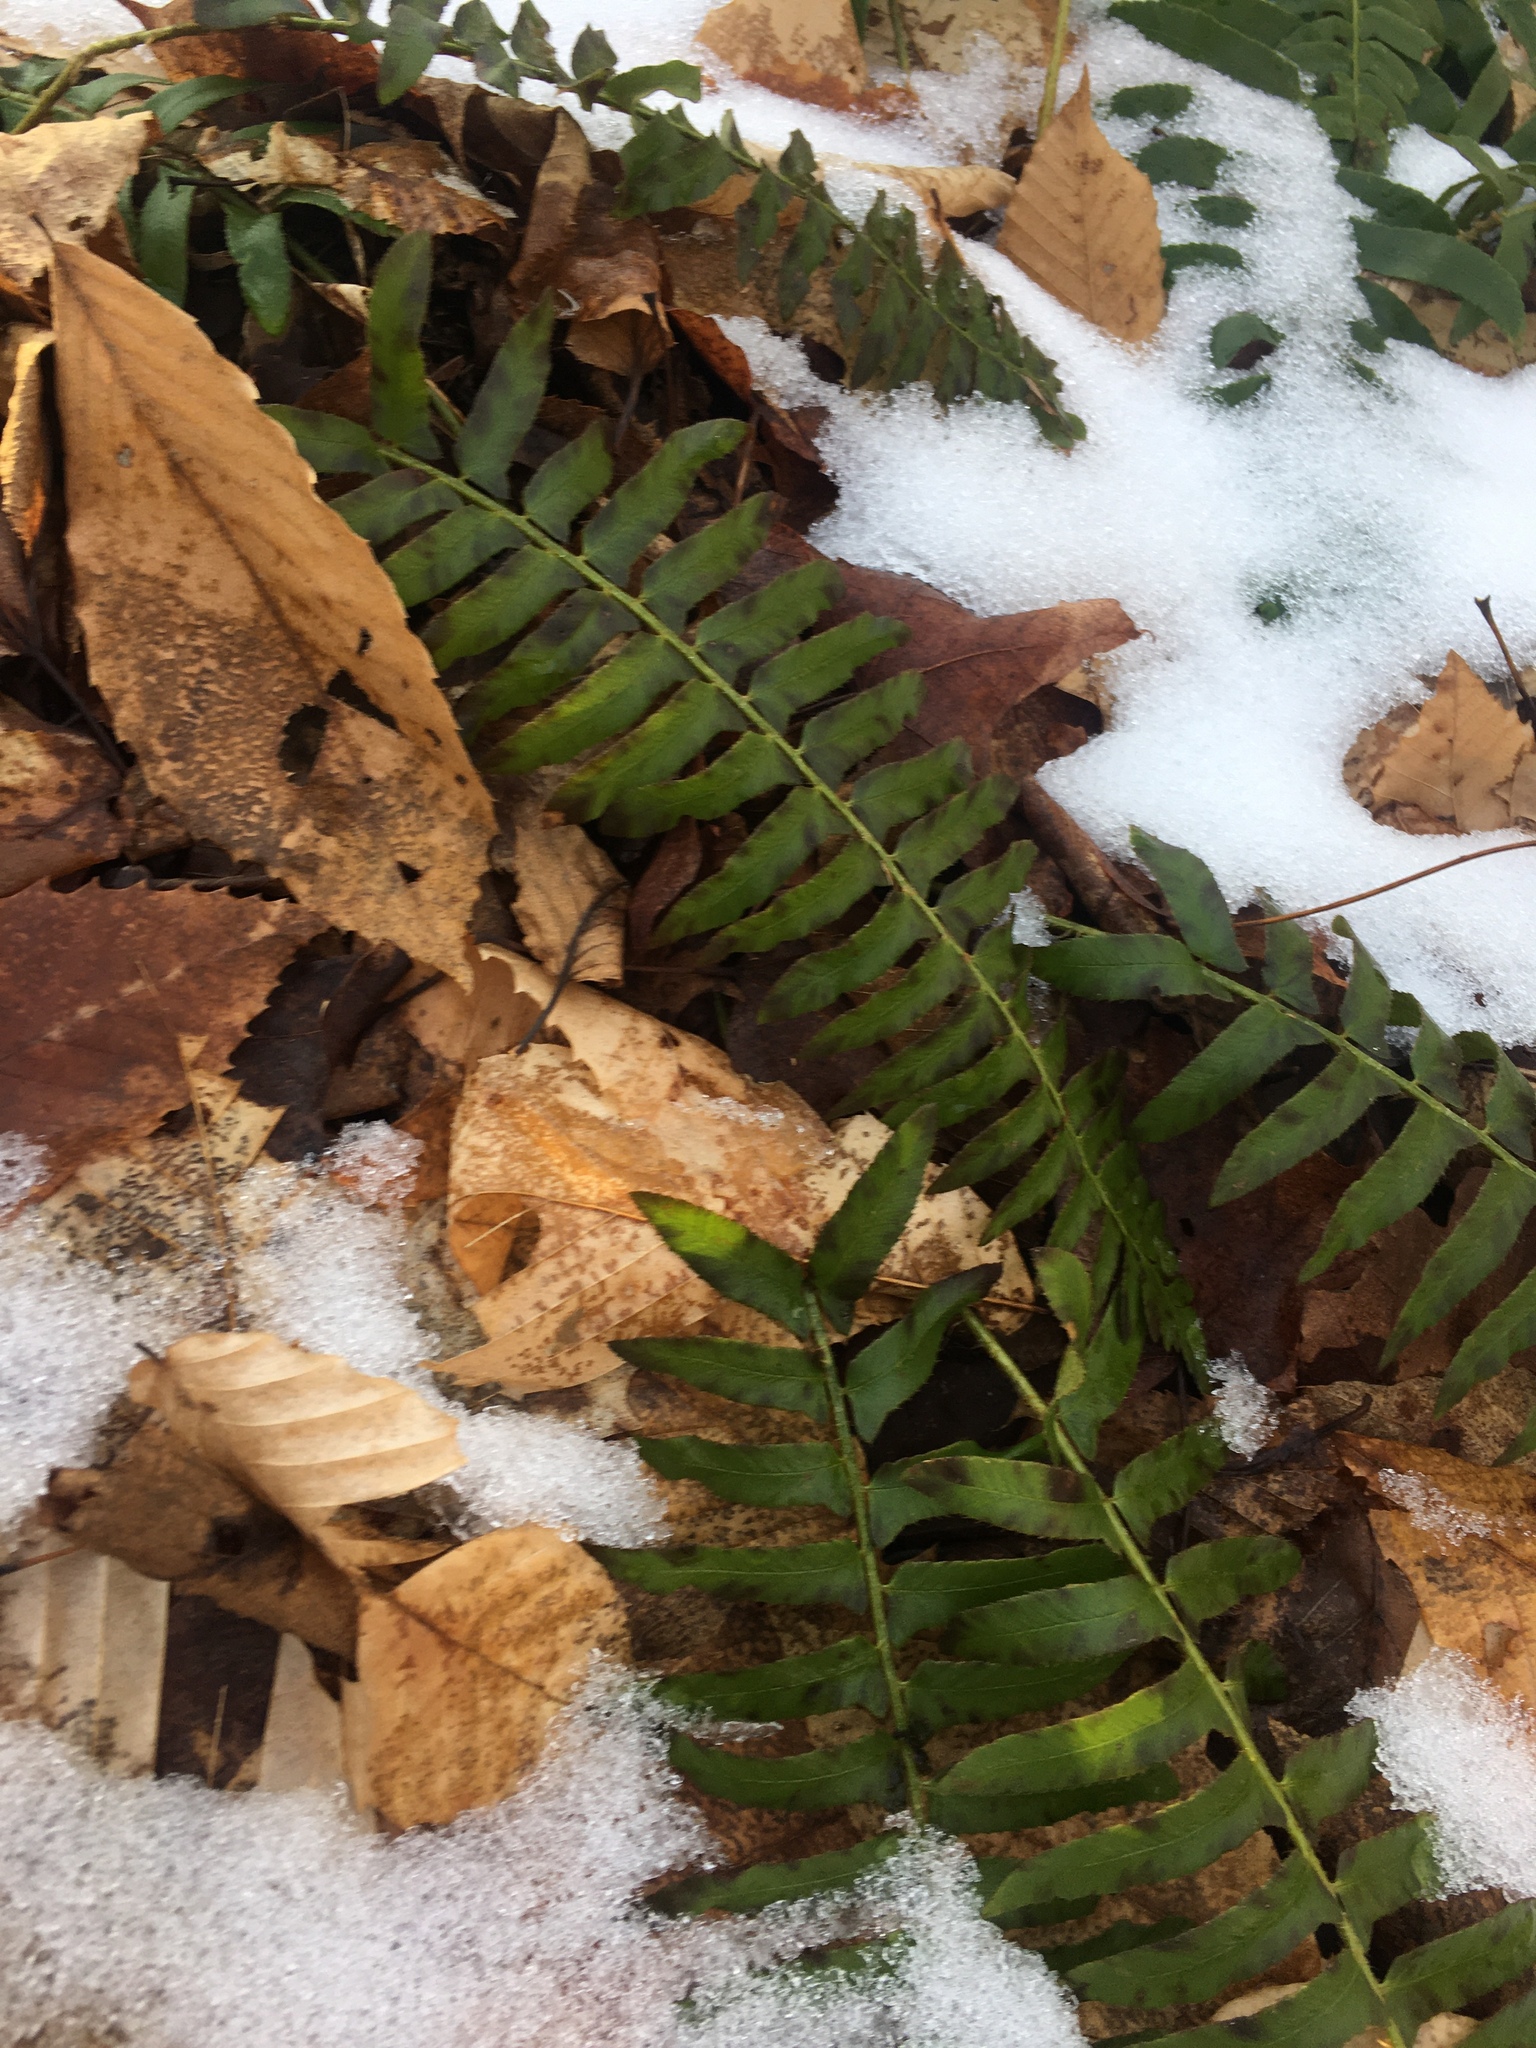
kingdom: Plantae
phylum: Tracheophyta
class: Polypodiopsida
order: Polypodiales
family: Dryopteridaceae
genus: Polystichum
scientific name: Polystichum acrostichoides
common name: Christmas fern
